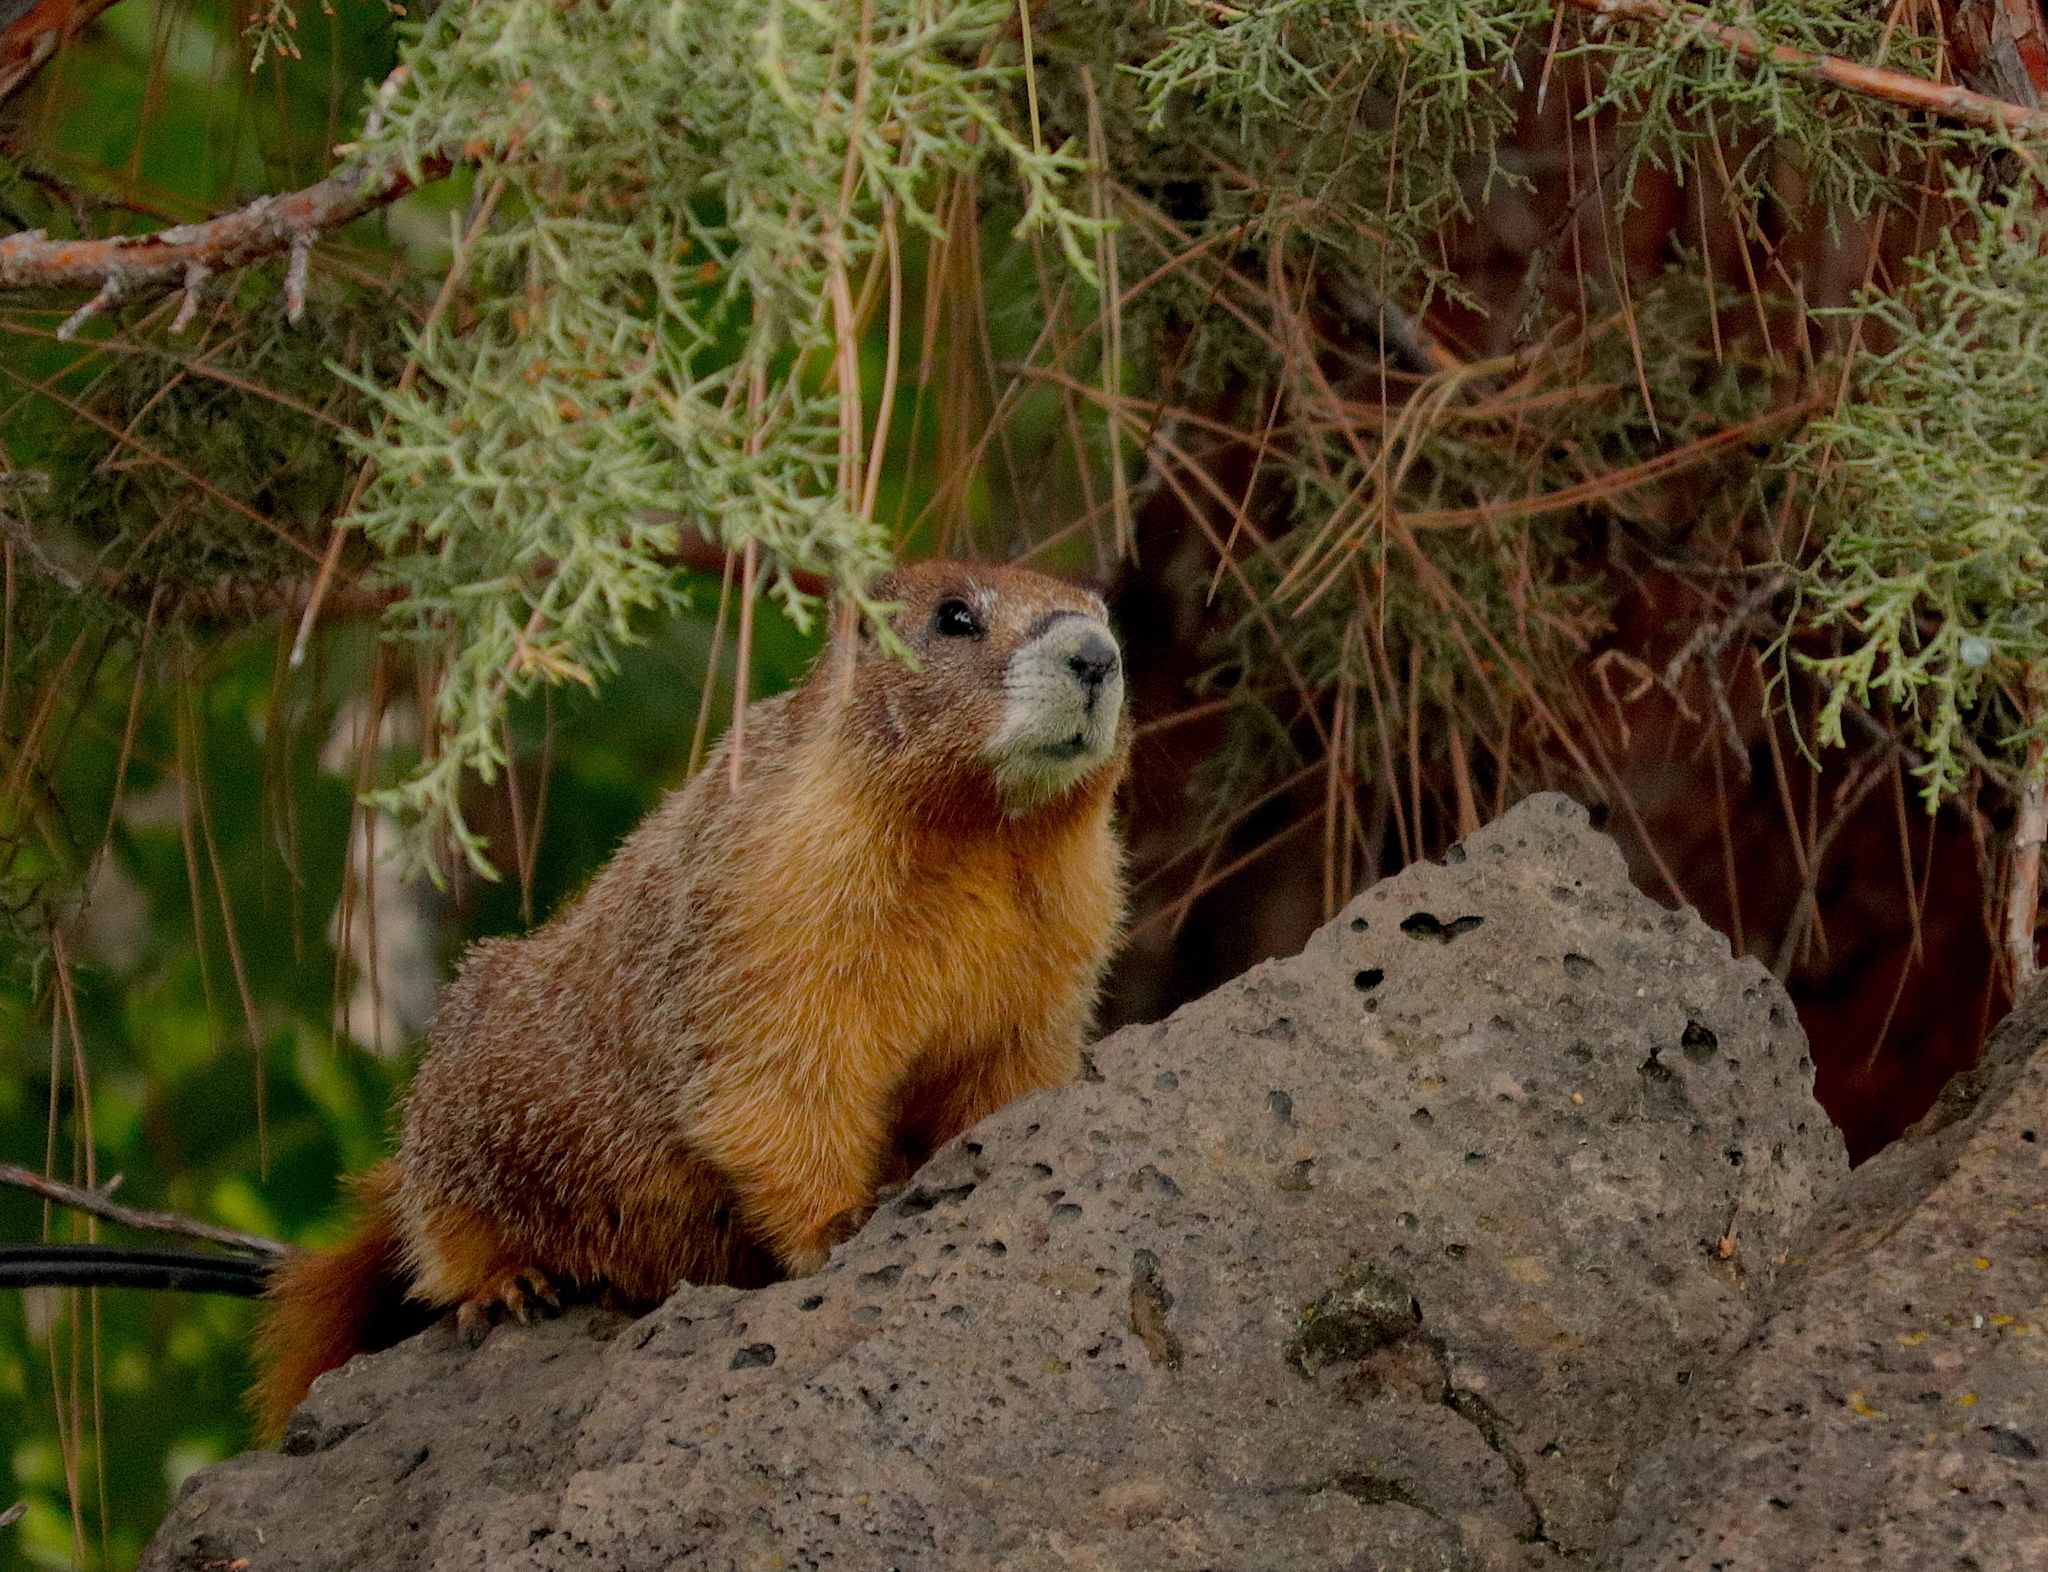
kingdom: Animalia
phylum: Chordata
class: Mammalia
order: Rodentia
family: Sciuridae
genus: Marmota
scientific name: Marmota flaviventris
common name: Yellow-bellied marmot
